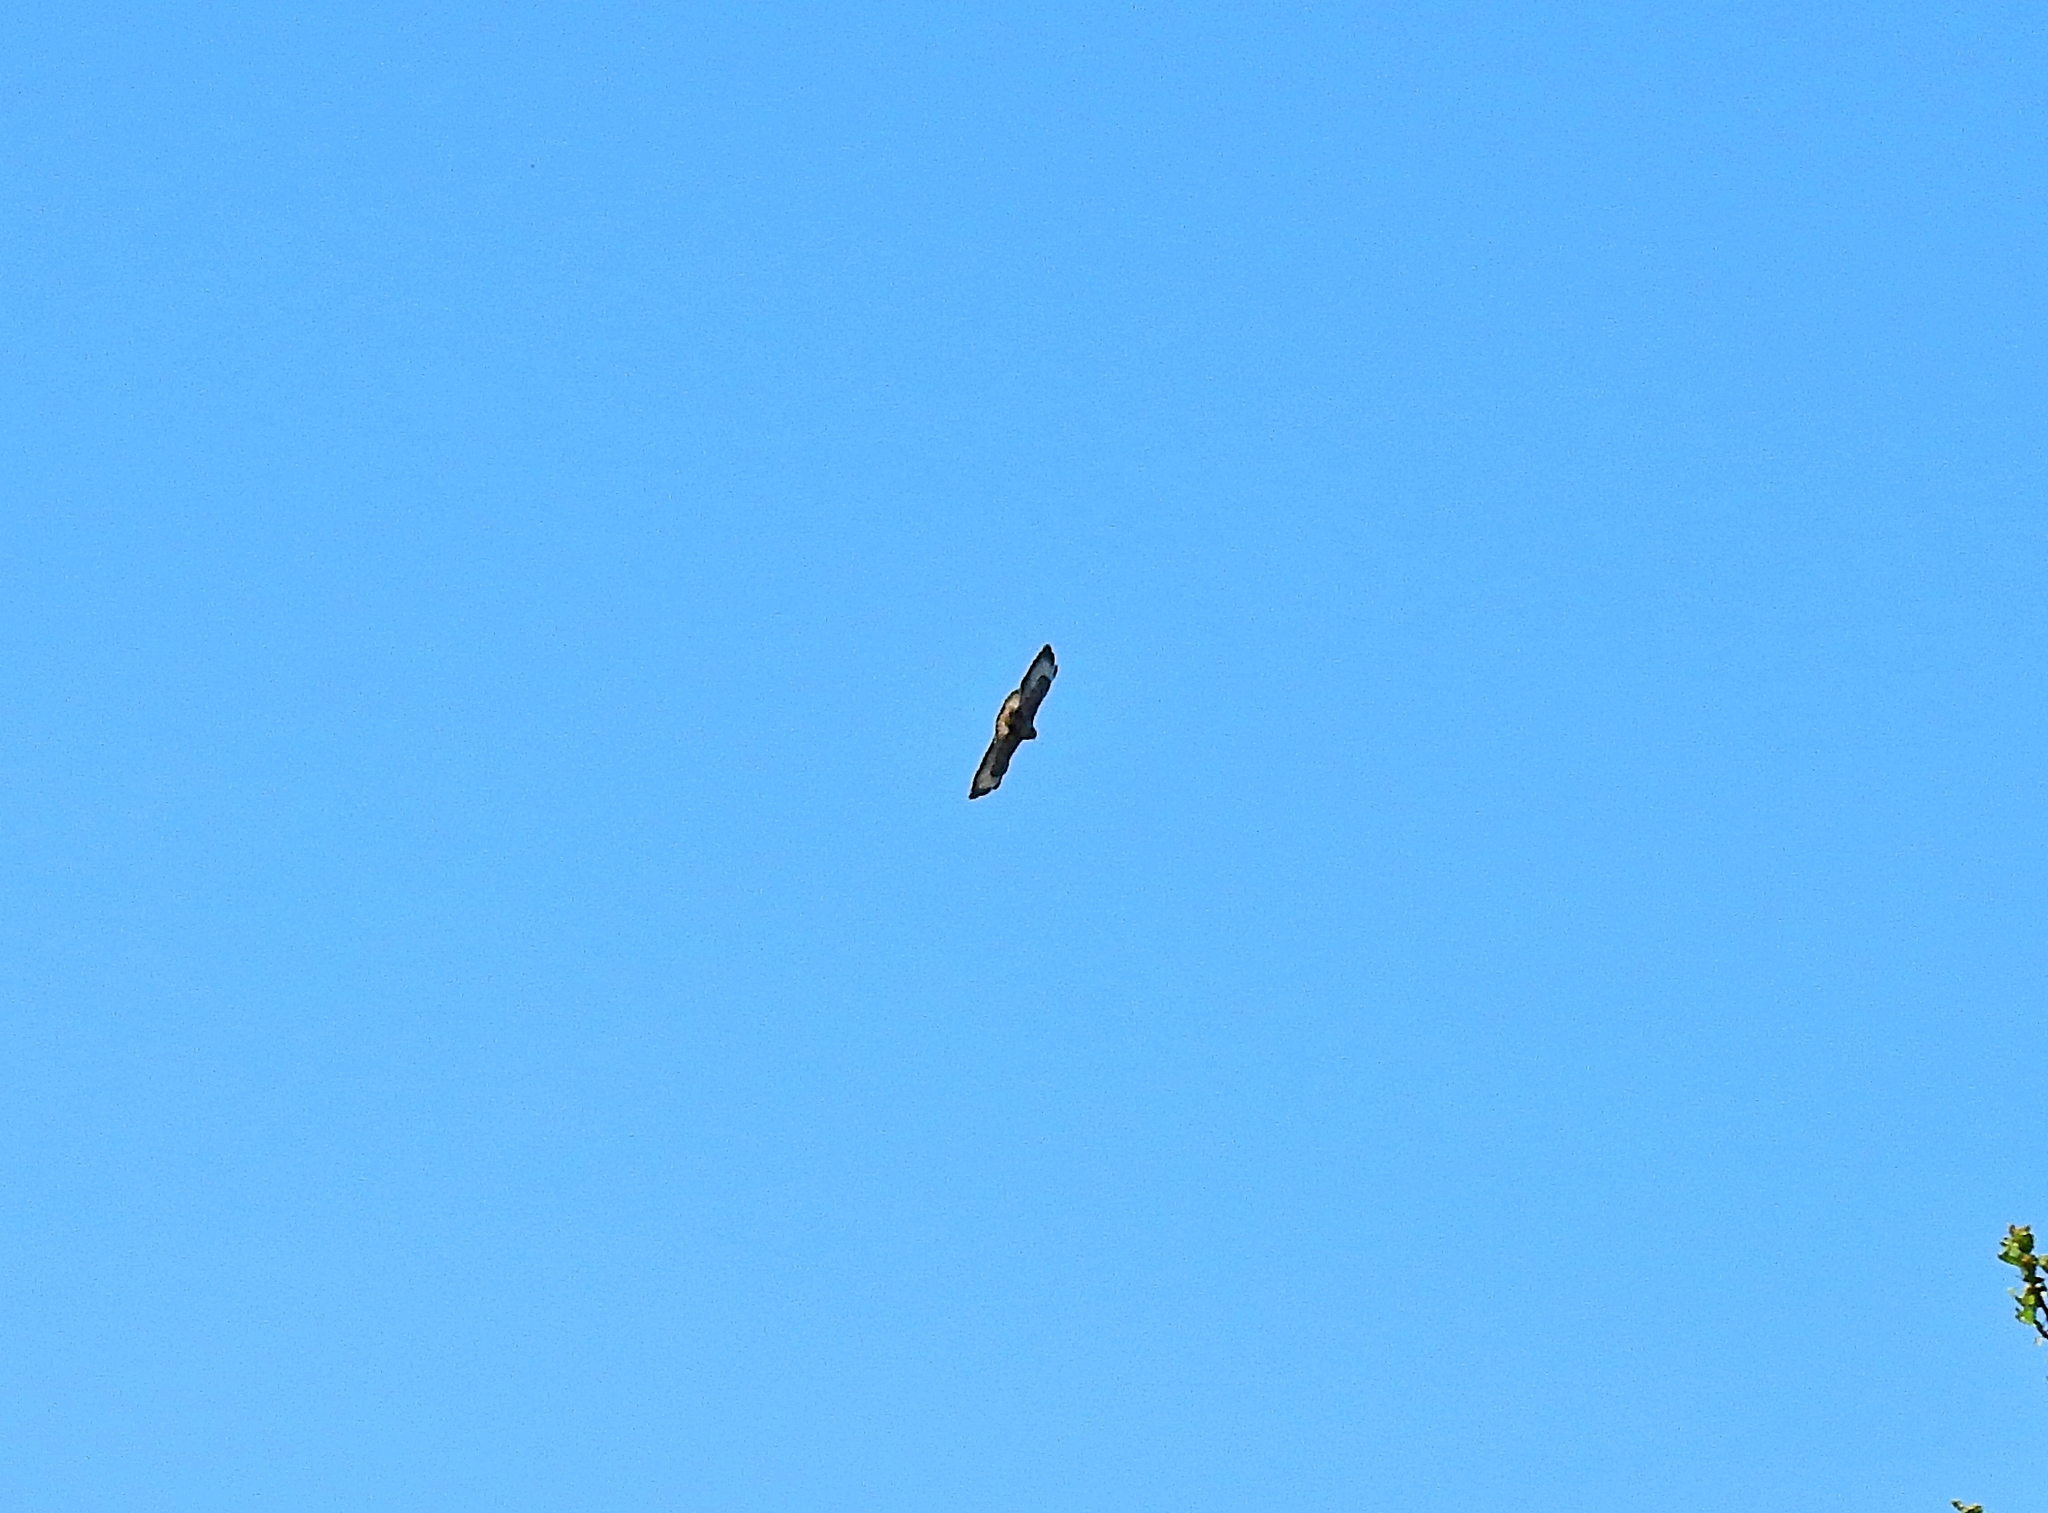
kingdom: Animalia
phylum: Chordata
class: Aves
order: Accipitriformes
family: Accipitridae
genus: Buteo
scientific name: Buteo buteo
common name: Common buzzard
